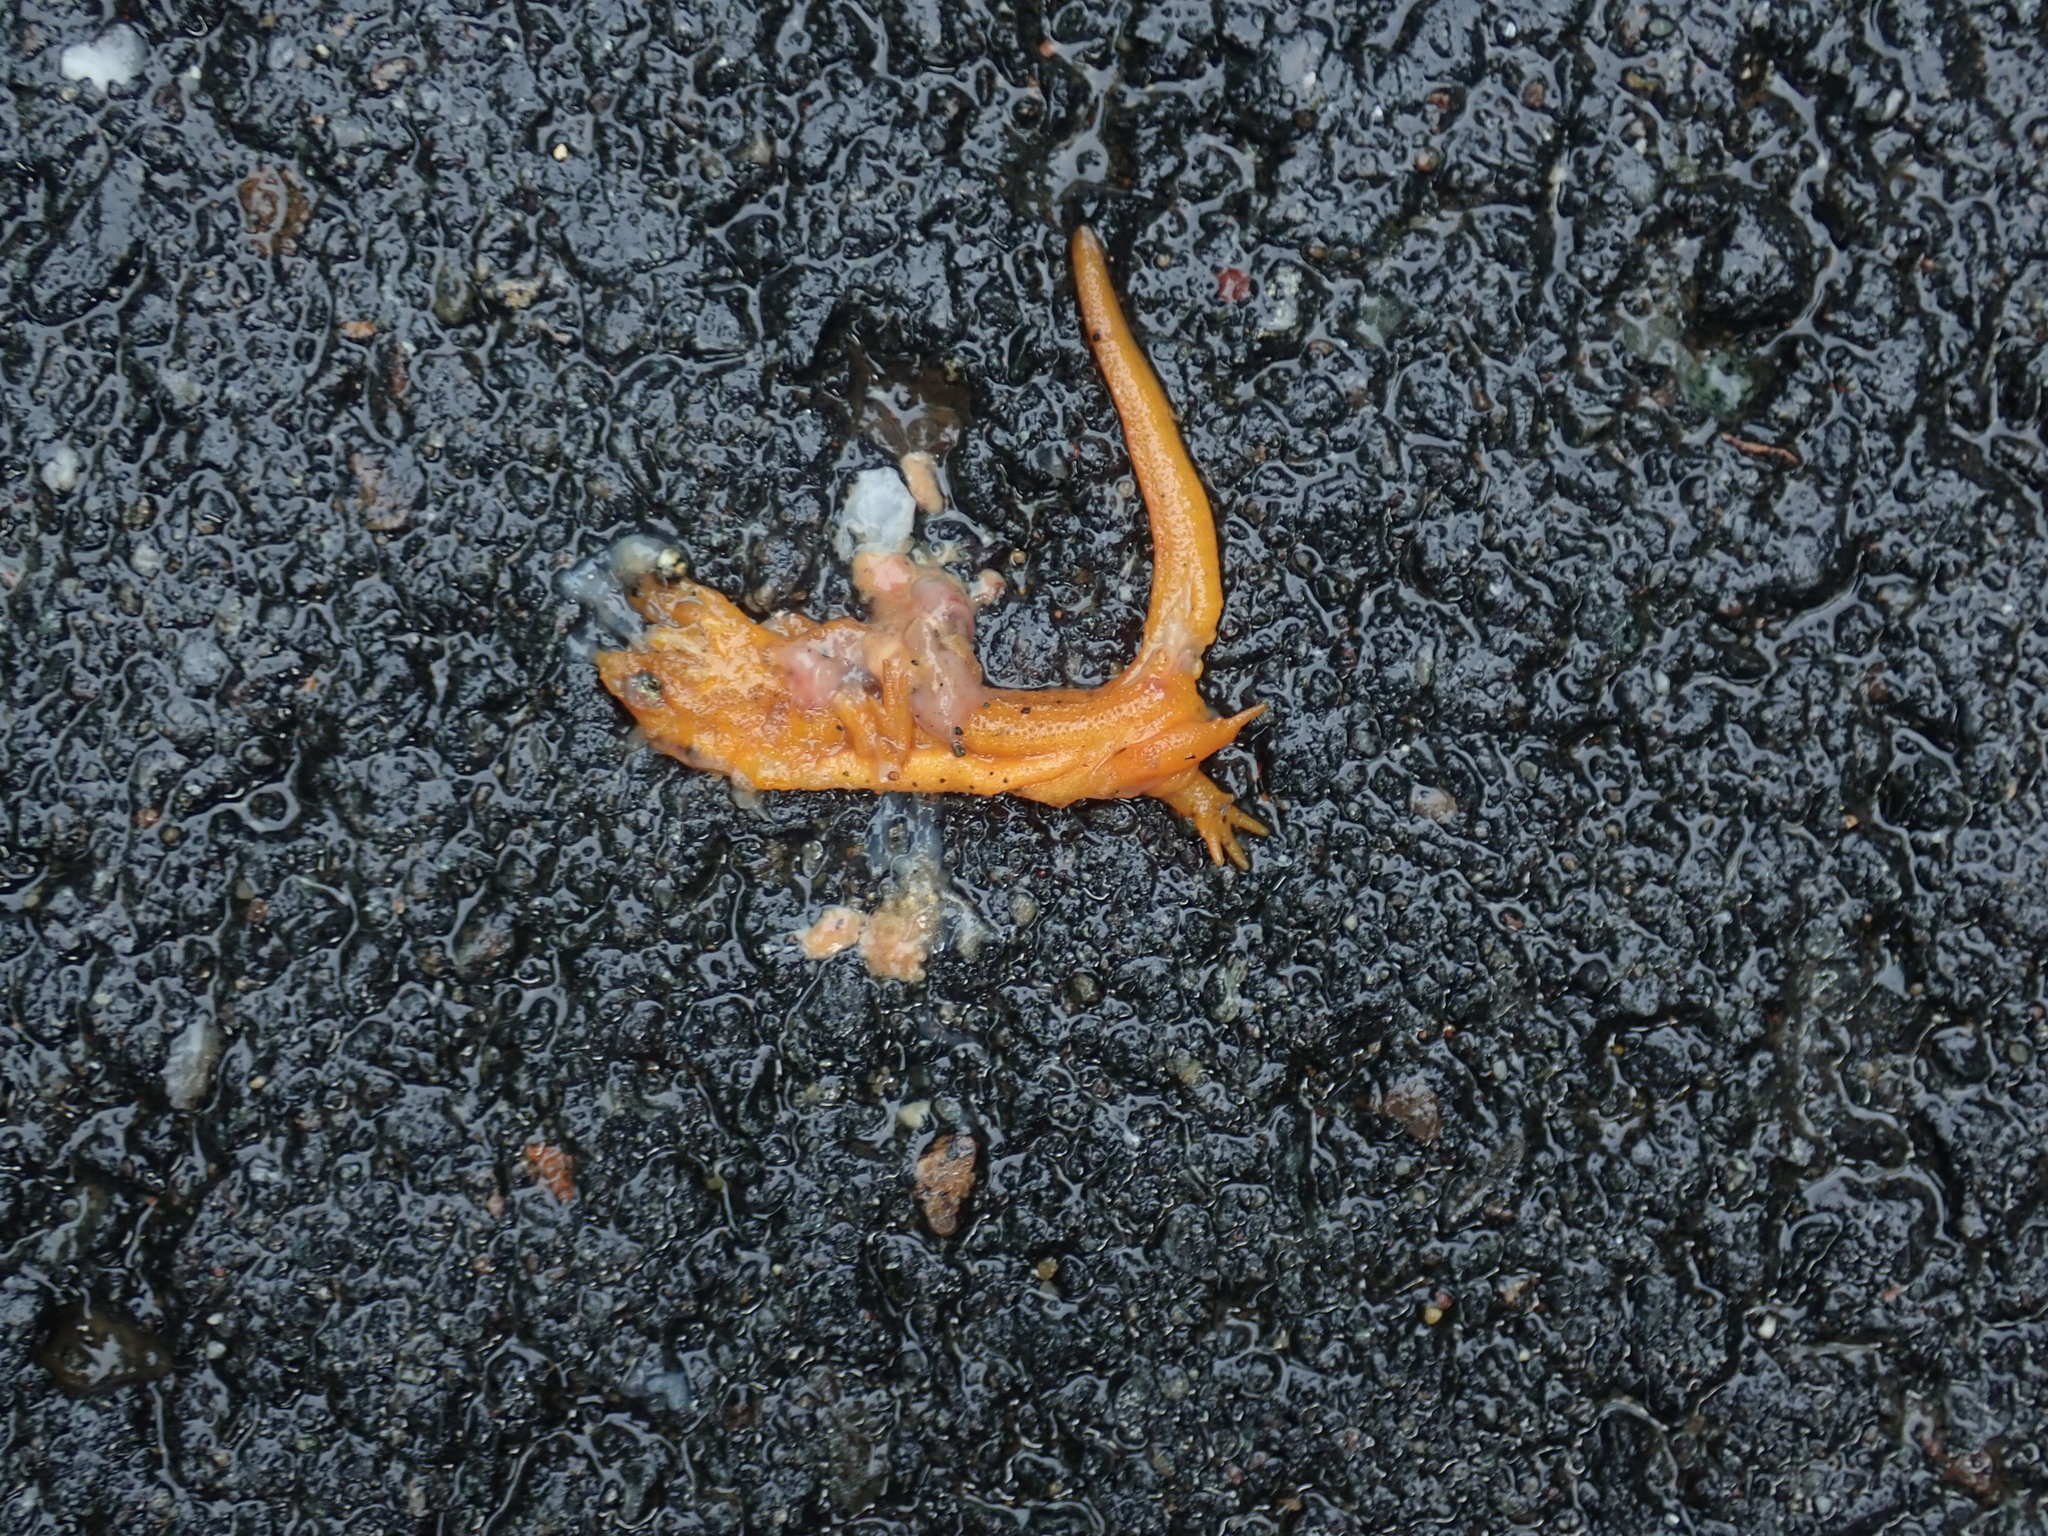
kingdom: Animalia
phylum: Chordata
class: Amphibia
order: Caudata
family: Salamandridae
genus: Notophthalmus
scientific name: Notophthalmus viridescens
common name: Eastern newt
